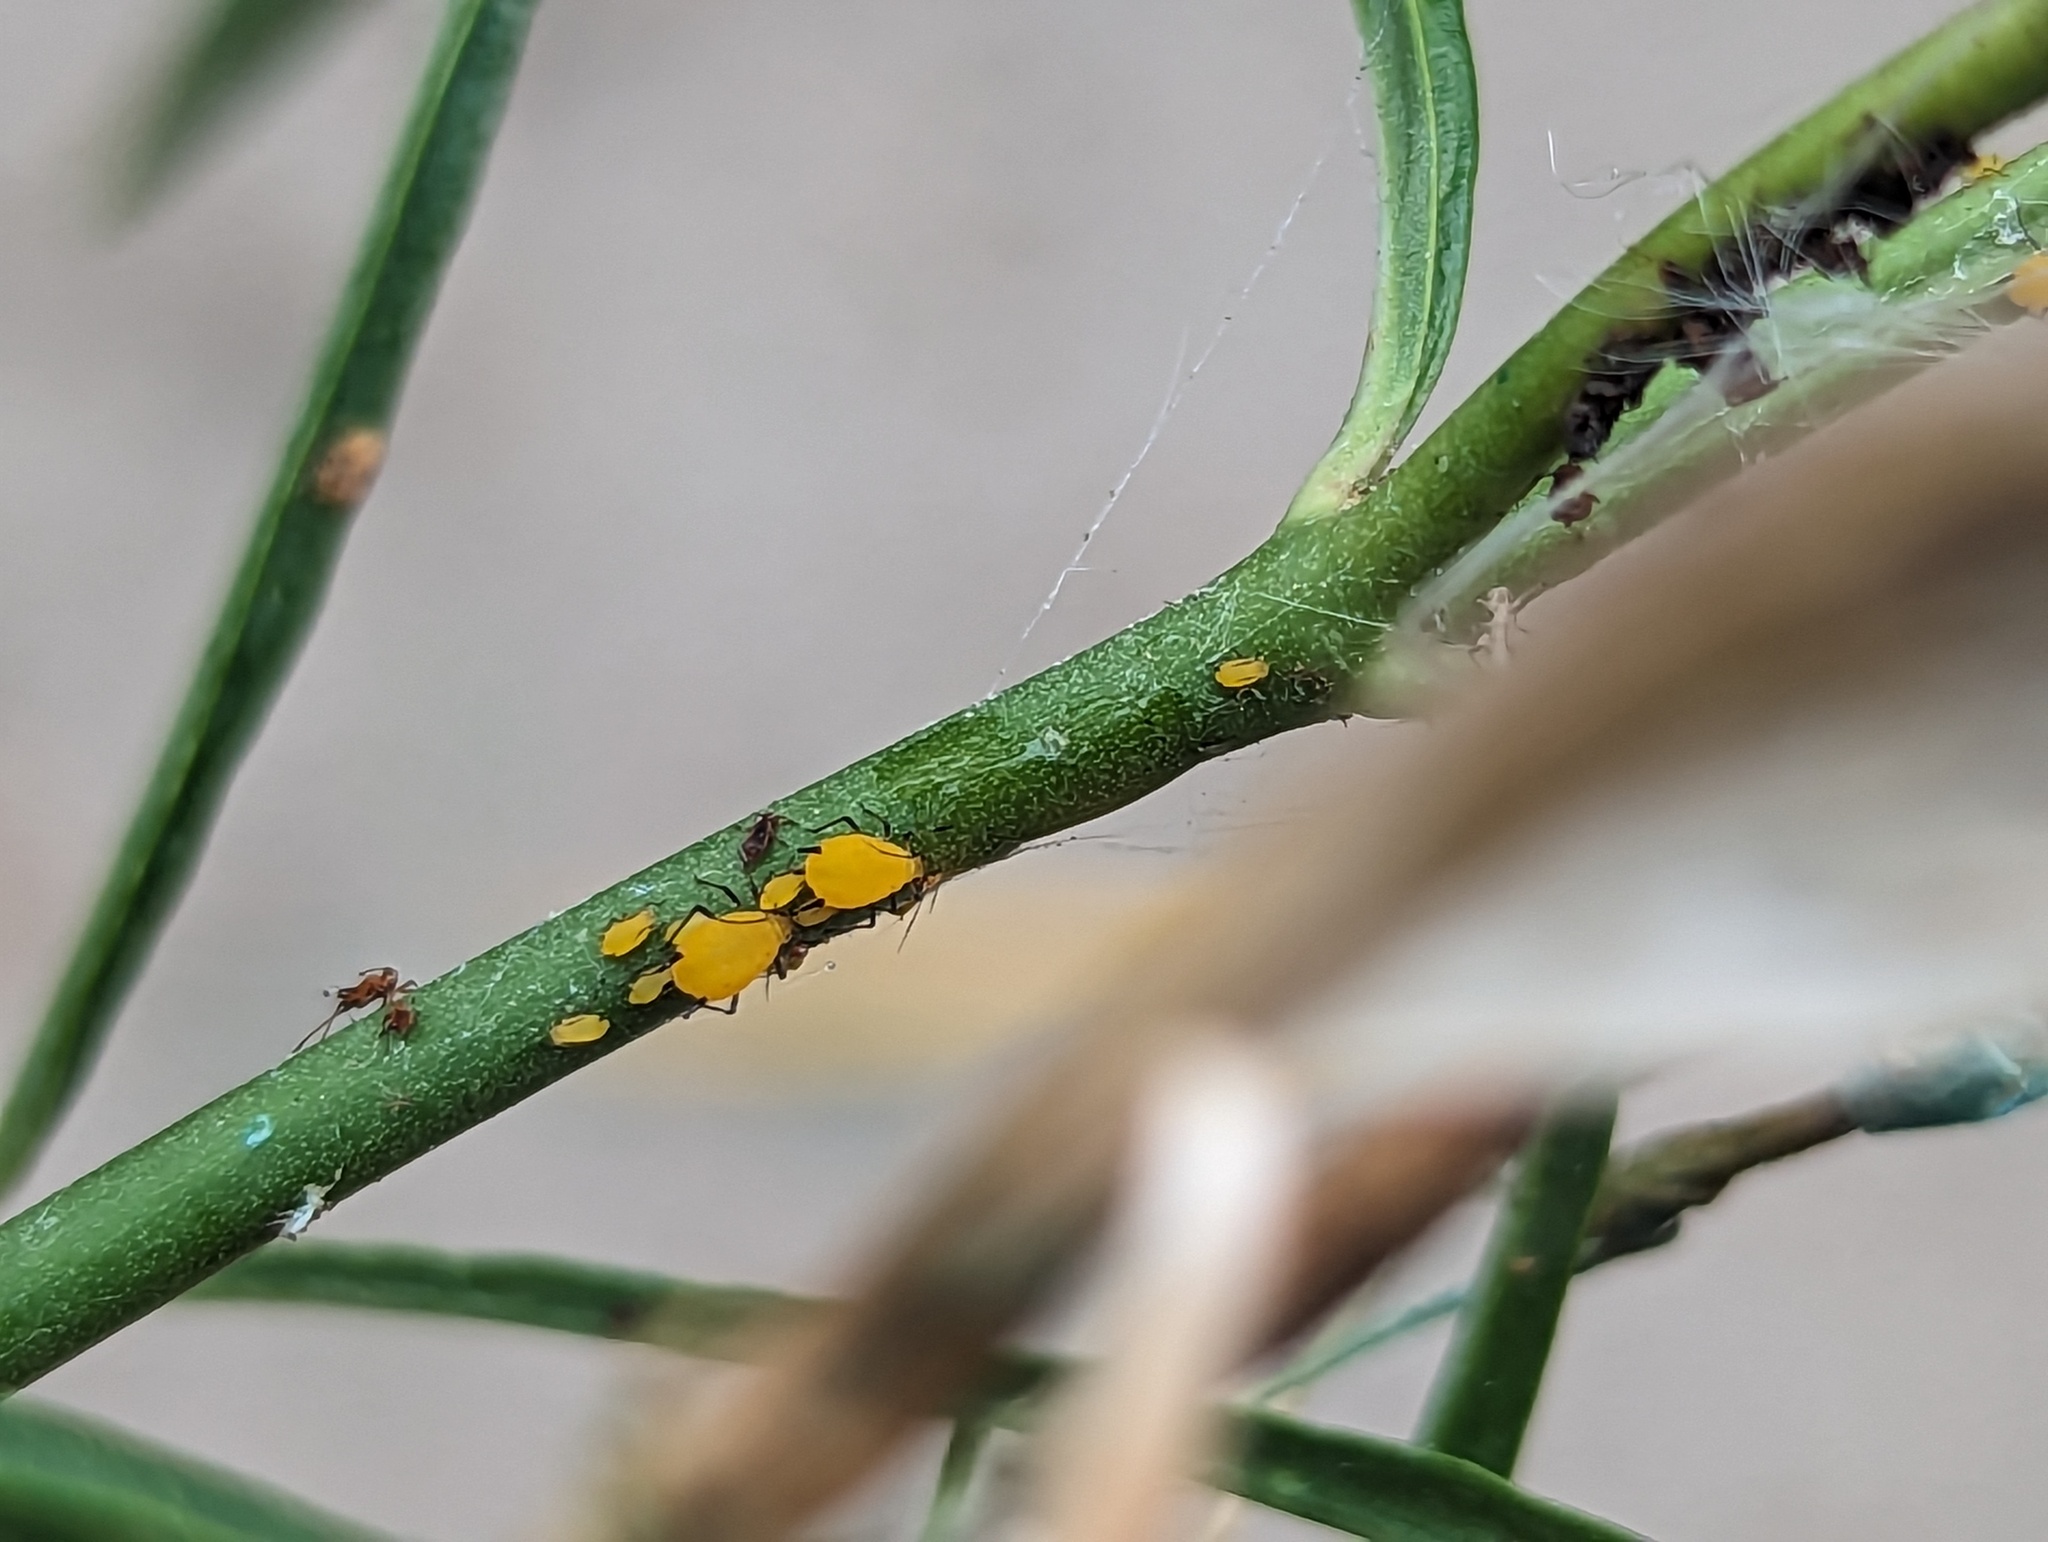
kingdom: Animalia
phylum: Arthropoda
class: Insecta
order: Hemiptera
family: Aphididae
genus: Aphis
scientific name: Aphis nerii
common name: Oleander aphid
